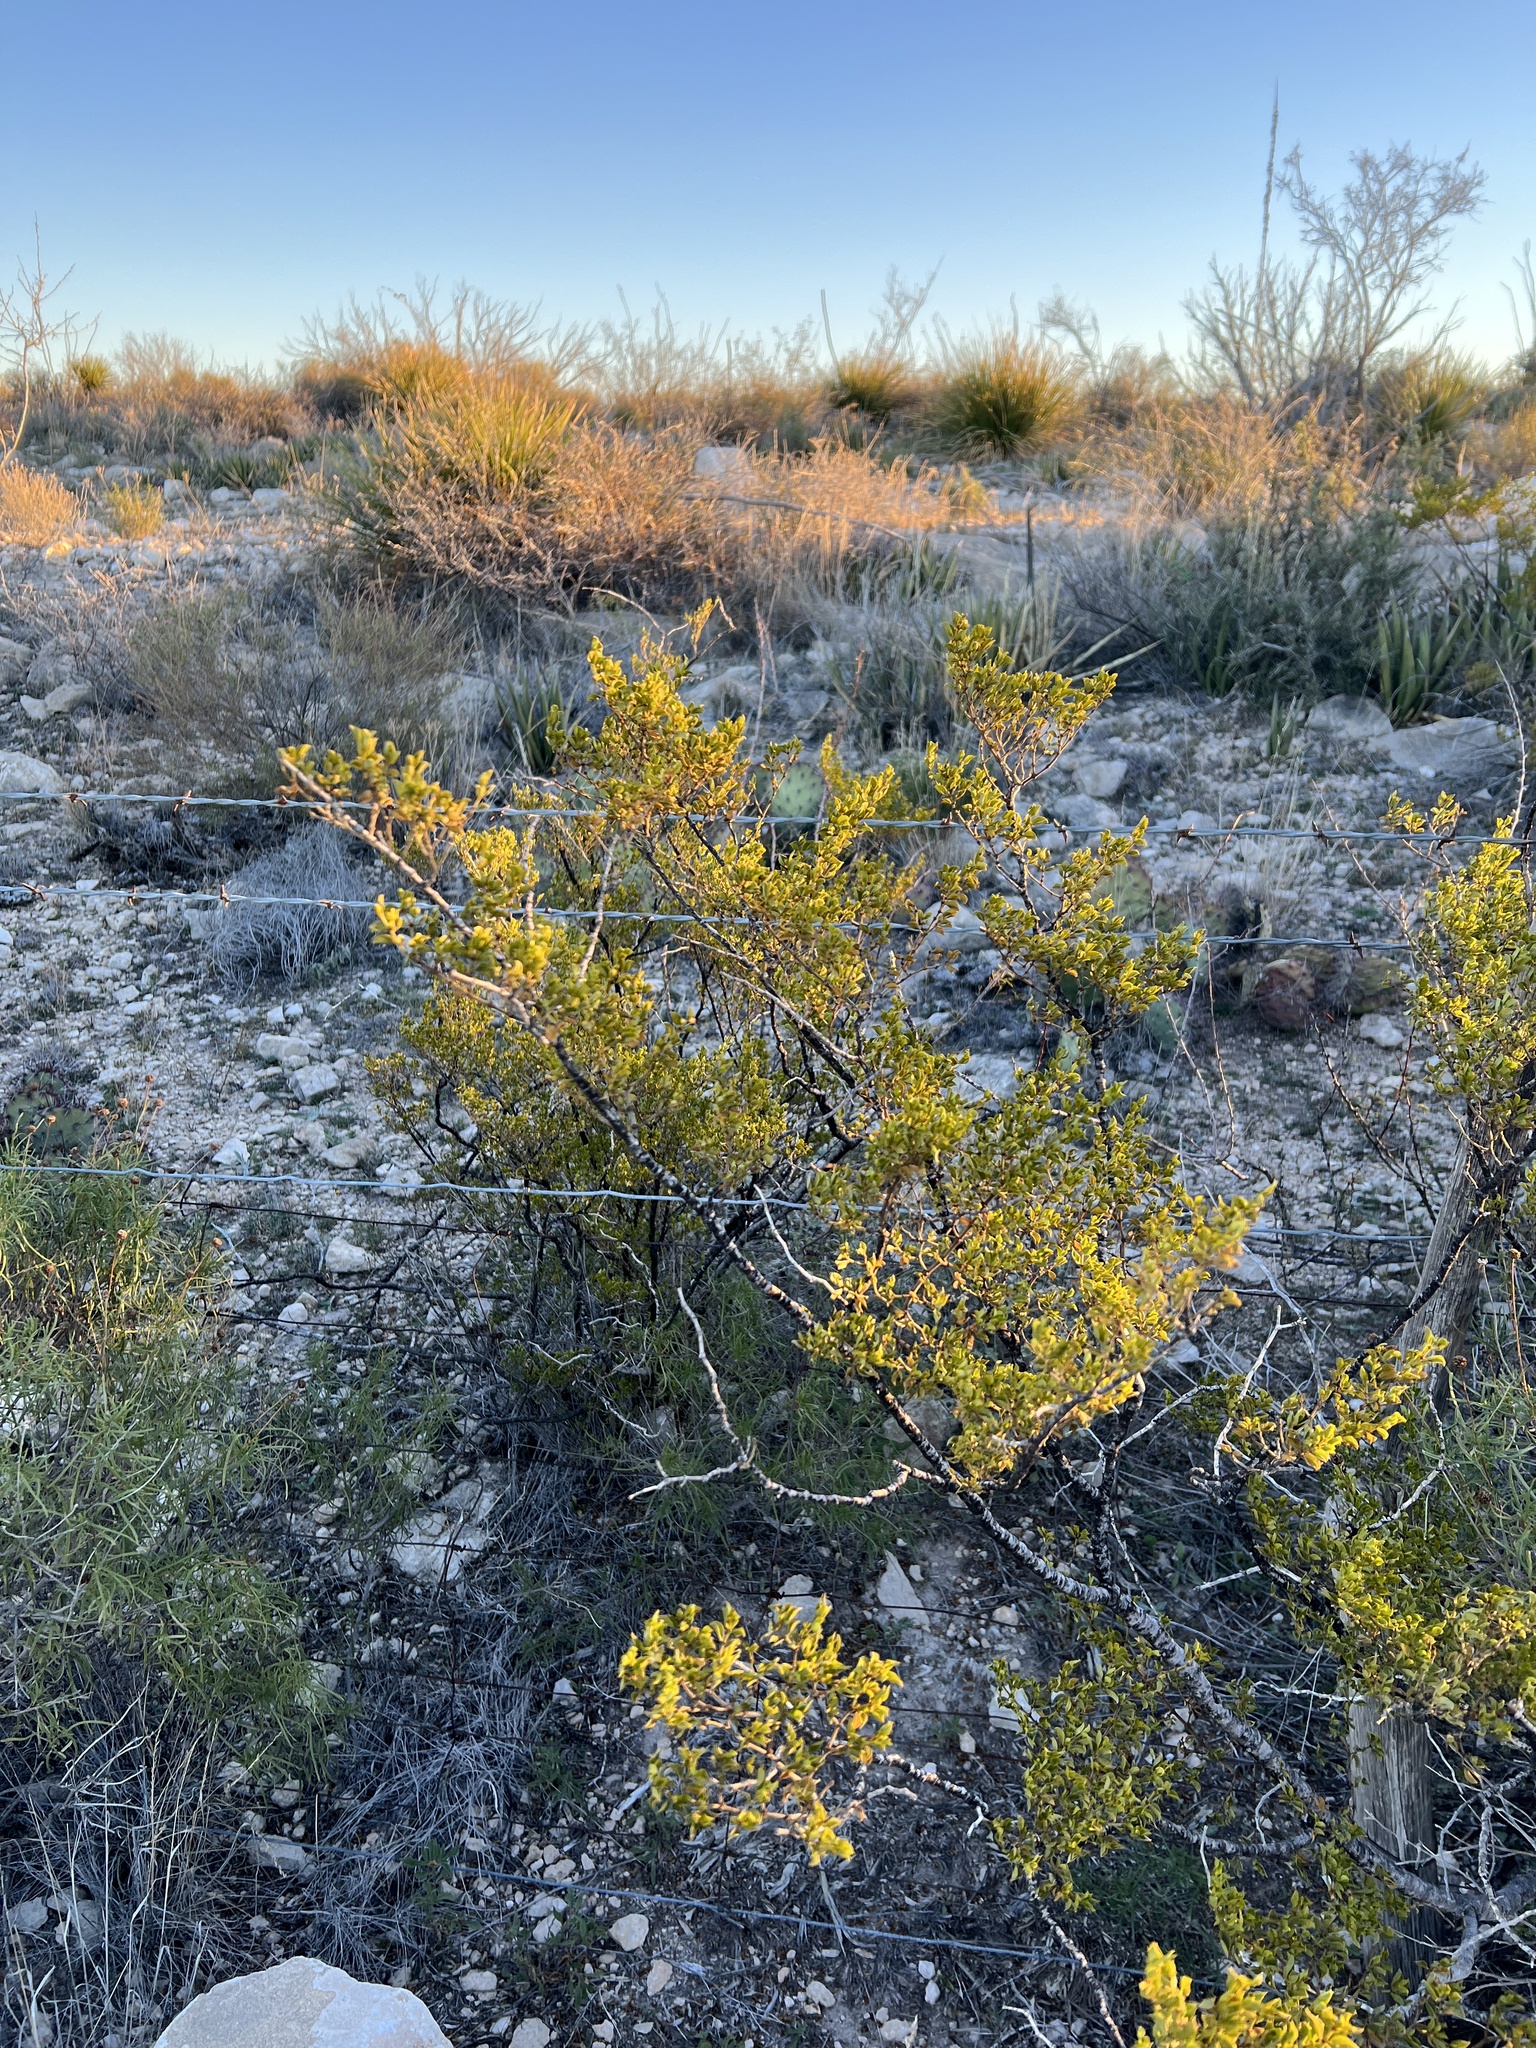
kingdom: Plantae
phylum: Tracheophyta
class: Magnoliopsida
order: Zygophyllales
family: Zygophyllaceae
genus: Larrea
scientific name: Larrea tridentata
